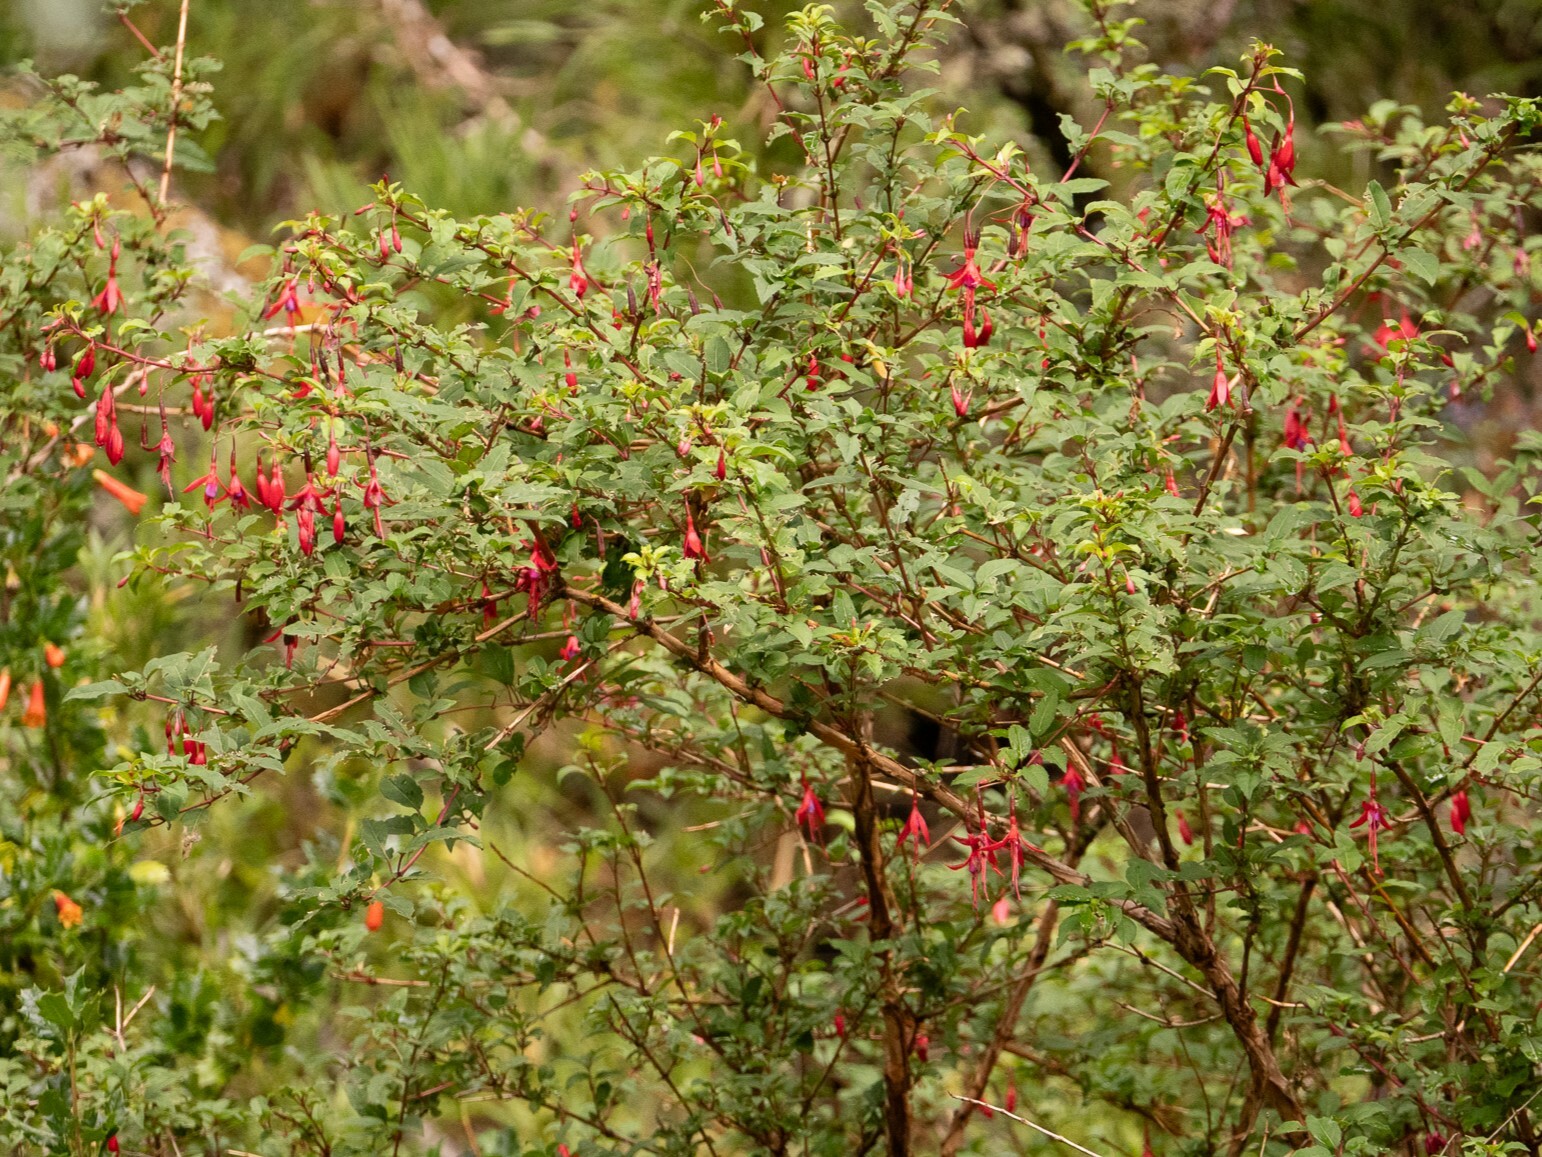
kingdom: Plantae
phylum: Tracheophyta
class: Magnoliopsida
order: Myrtales
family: Onagraceae
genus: Fuchsia
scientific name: Fuchsia magellanica
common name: Hardy fuchsia
